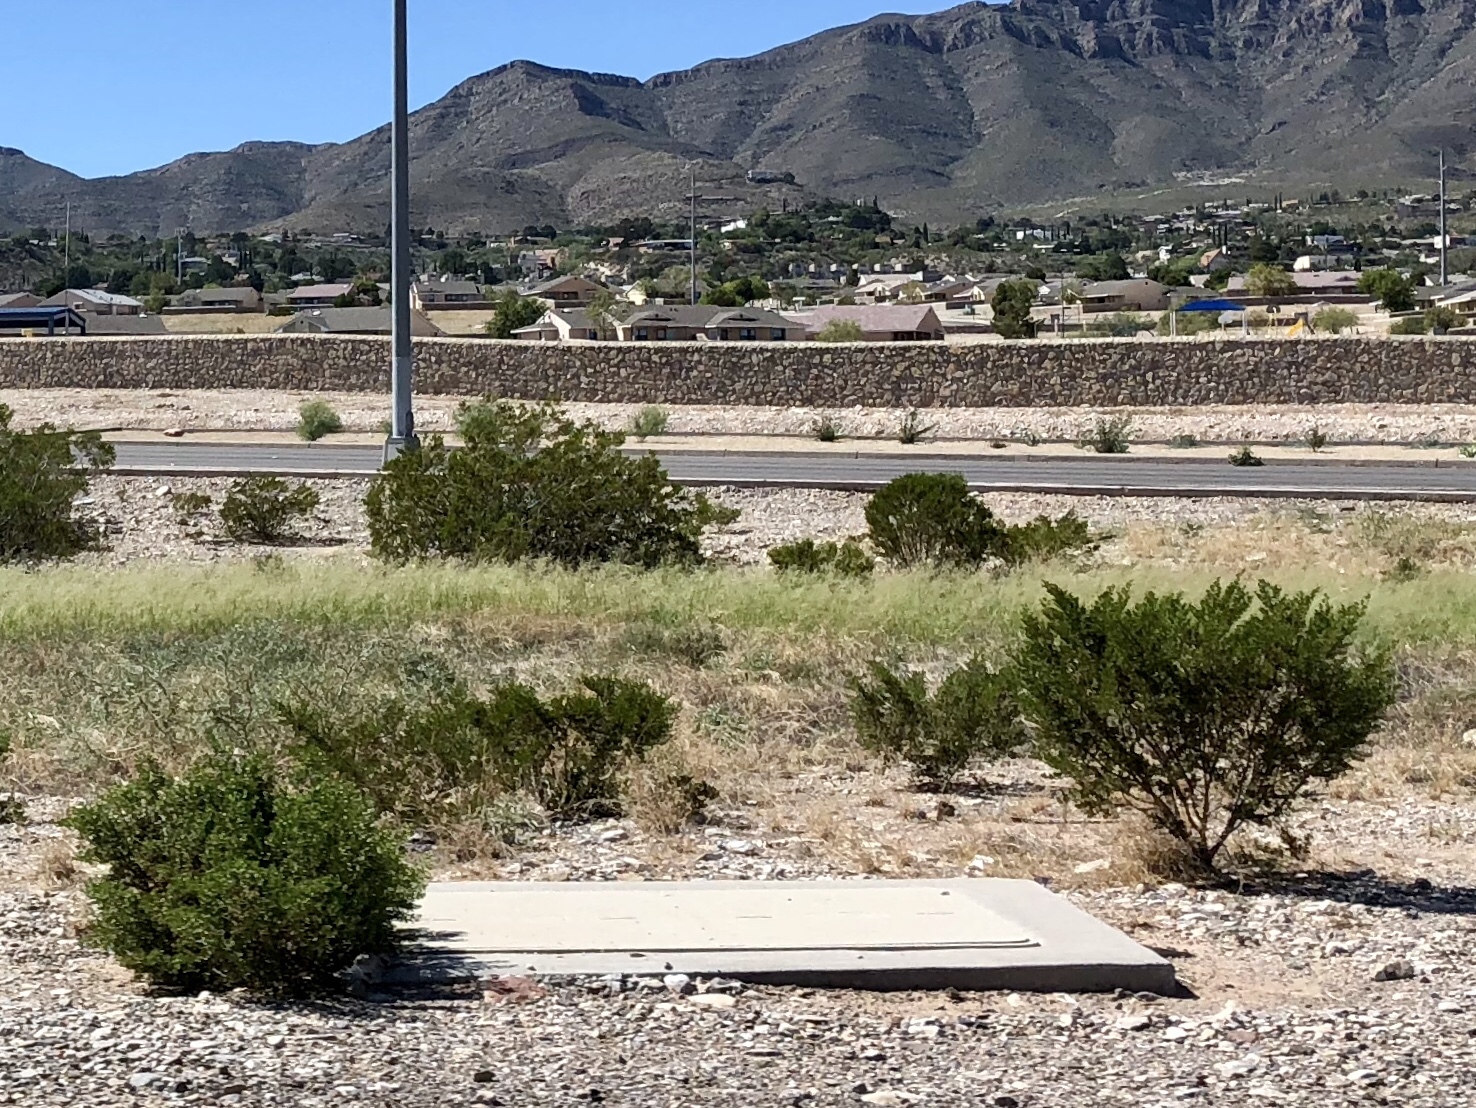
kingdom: Plantae
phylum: Tracheophyta
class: Magnoliopsida
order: Zygophyllales
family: Zygophyllaceae
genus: Larrea
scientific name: Larrea tridentata
